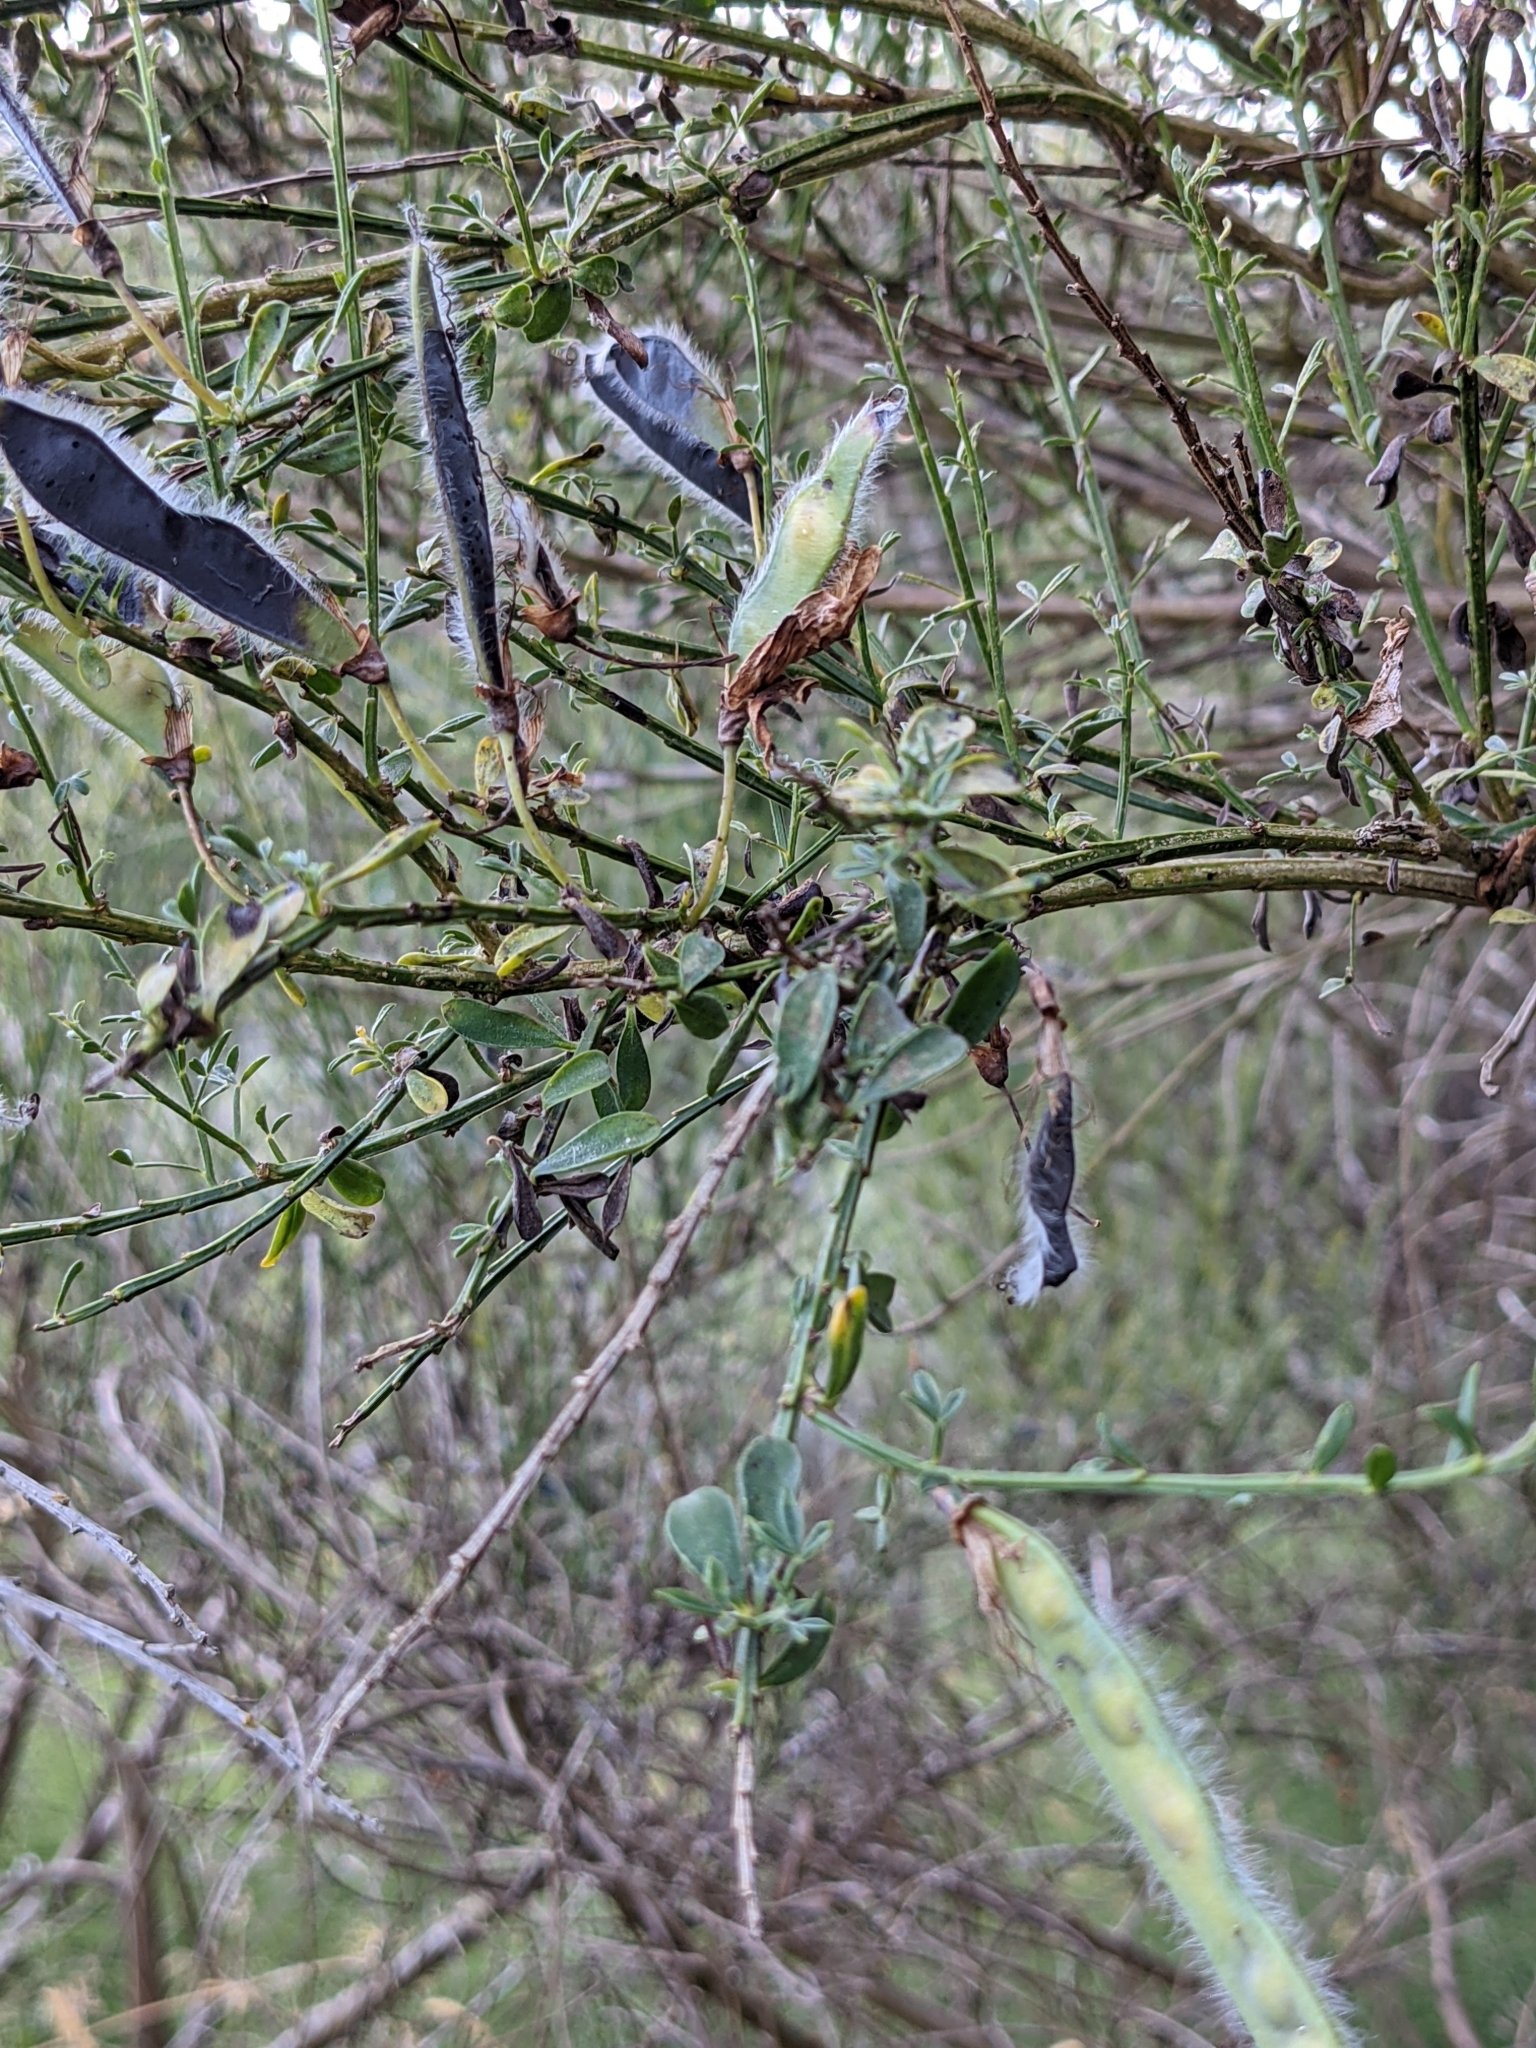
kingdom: Plantae
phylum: Tracheophyta
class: Magnoliopsida
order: Fabales
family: Fabaceae
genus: Cytisus
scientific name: Cytisus scoparius
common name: Scotch broom
